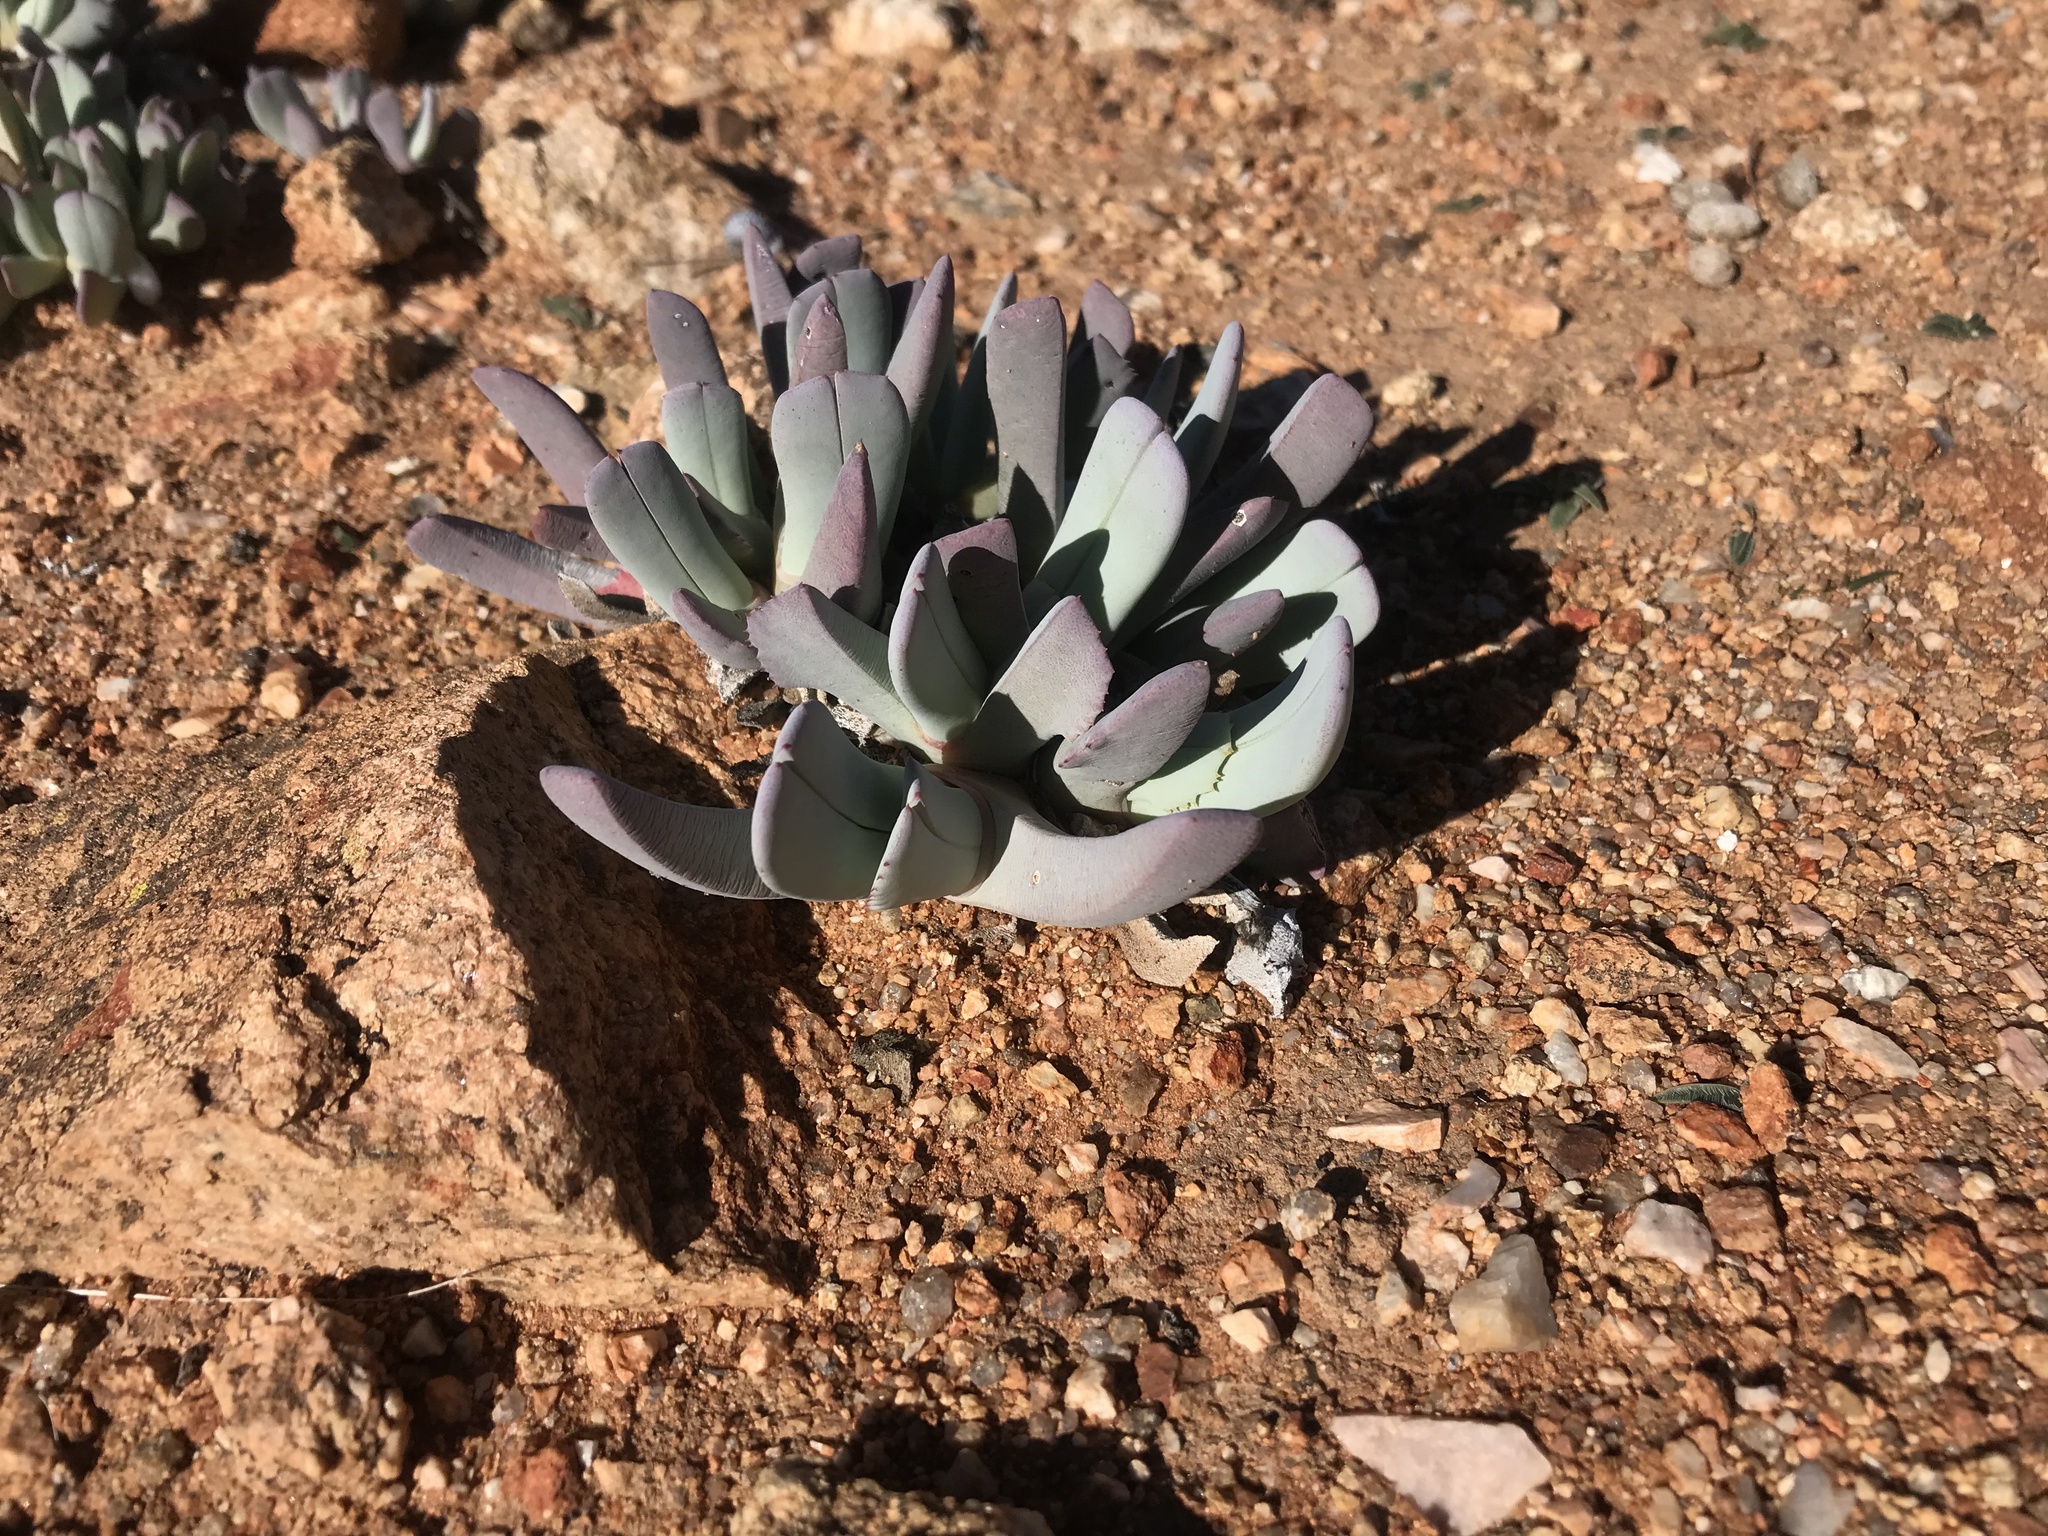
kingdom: Plantae
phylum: Tracheophyta
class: Magnoliopsida
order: Caryophyllales
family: Aizoaceae
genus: Cheiridopsis
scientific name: Cheiridopsis denticulata
